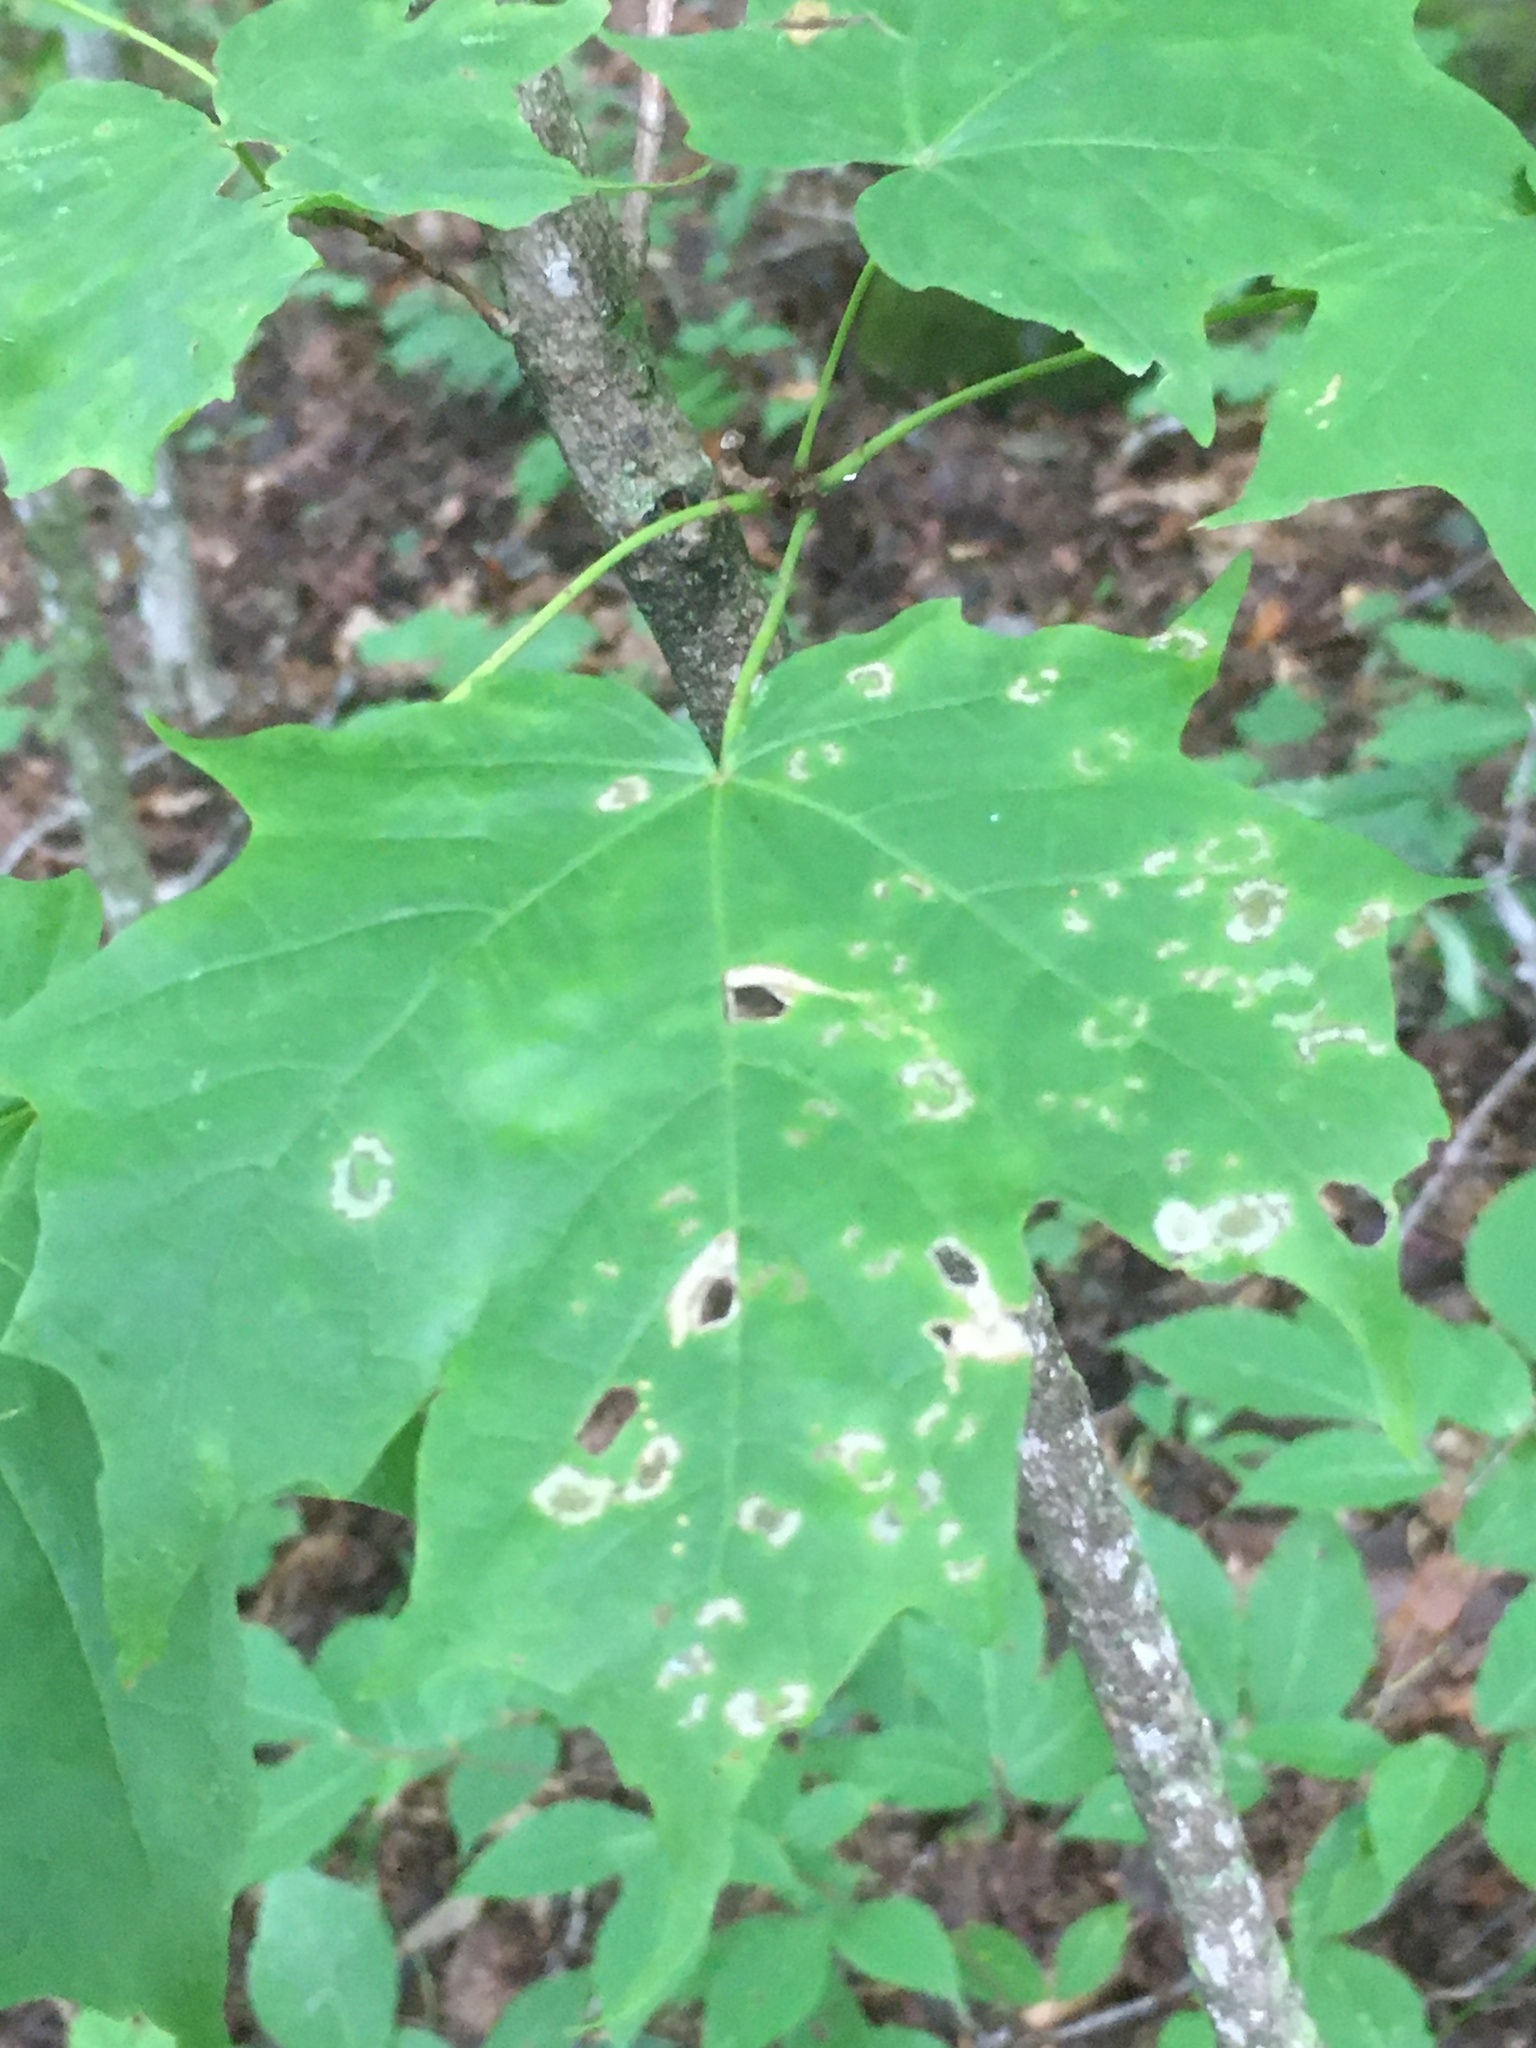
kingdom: Animalia
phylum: Arthropoda
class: Insecta
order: Lepidoptera
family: Incurvariidae
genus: Paraclemensia
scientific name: Paraclemensia acerifoliella
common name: Maple leafcutter
